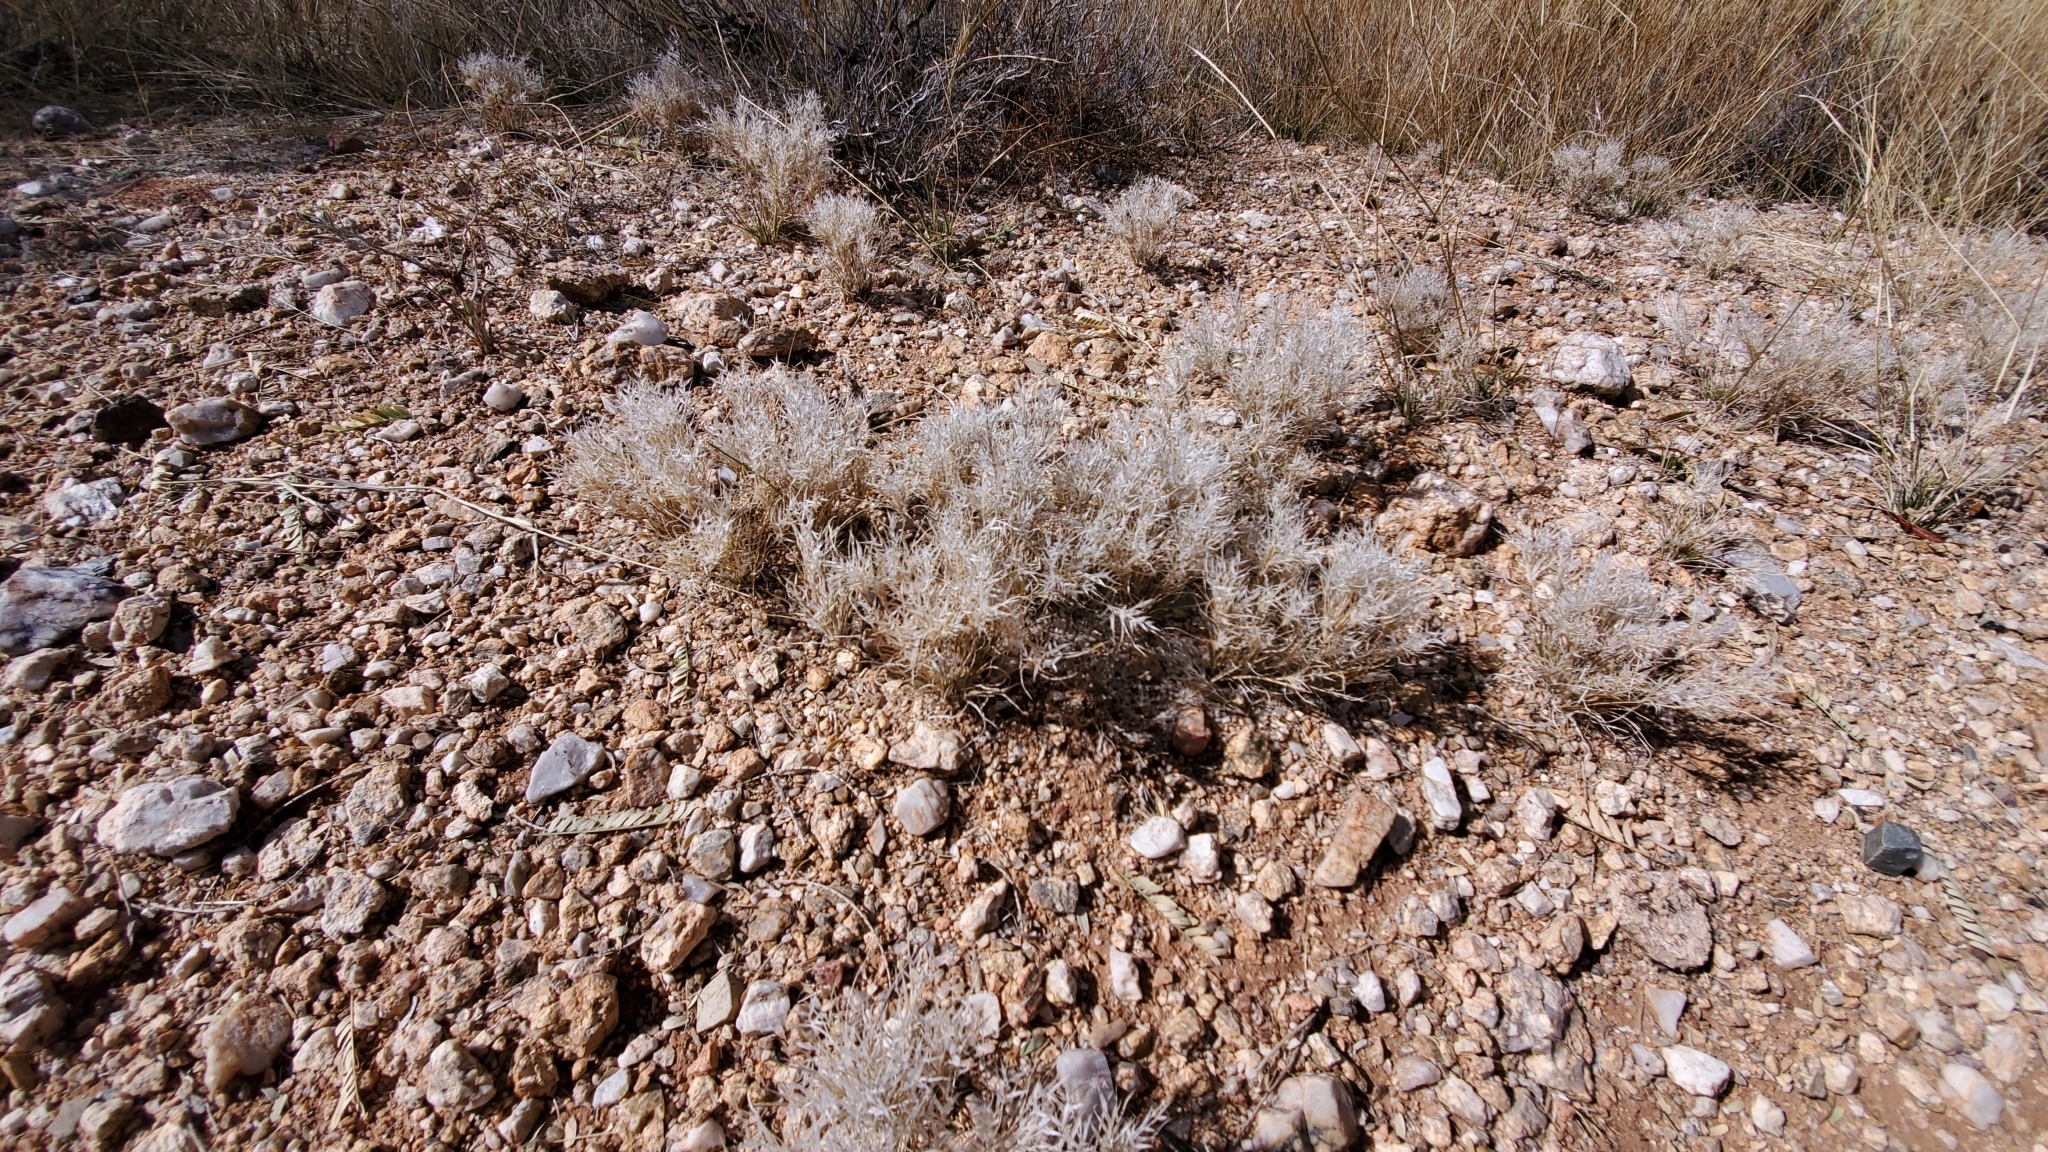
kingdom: Plantae
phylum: Tracheophyta
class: Liliopsida
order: Poales
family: Poaceae
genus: Dasyochloa
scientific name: Dasyochloa pulchella
